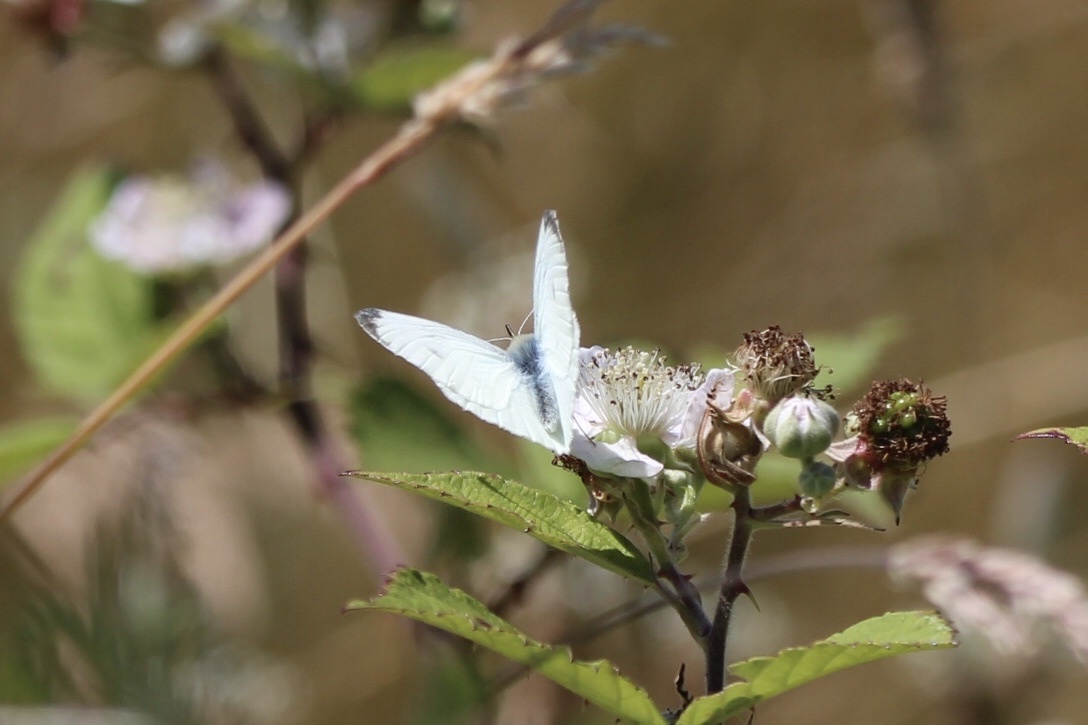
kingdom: Animalia
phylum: Arthropoda
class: Insecta
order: Lepidoptera
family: Pieridae
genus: Pieris
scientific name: Pieris marginalis
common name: Margined white
